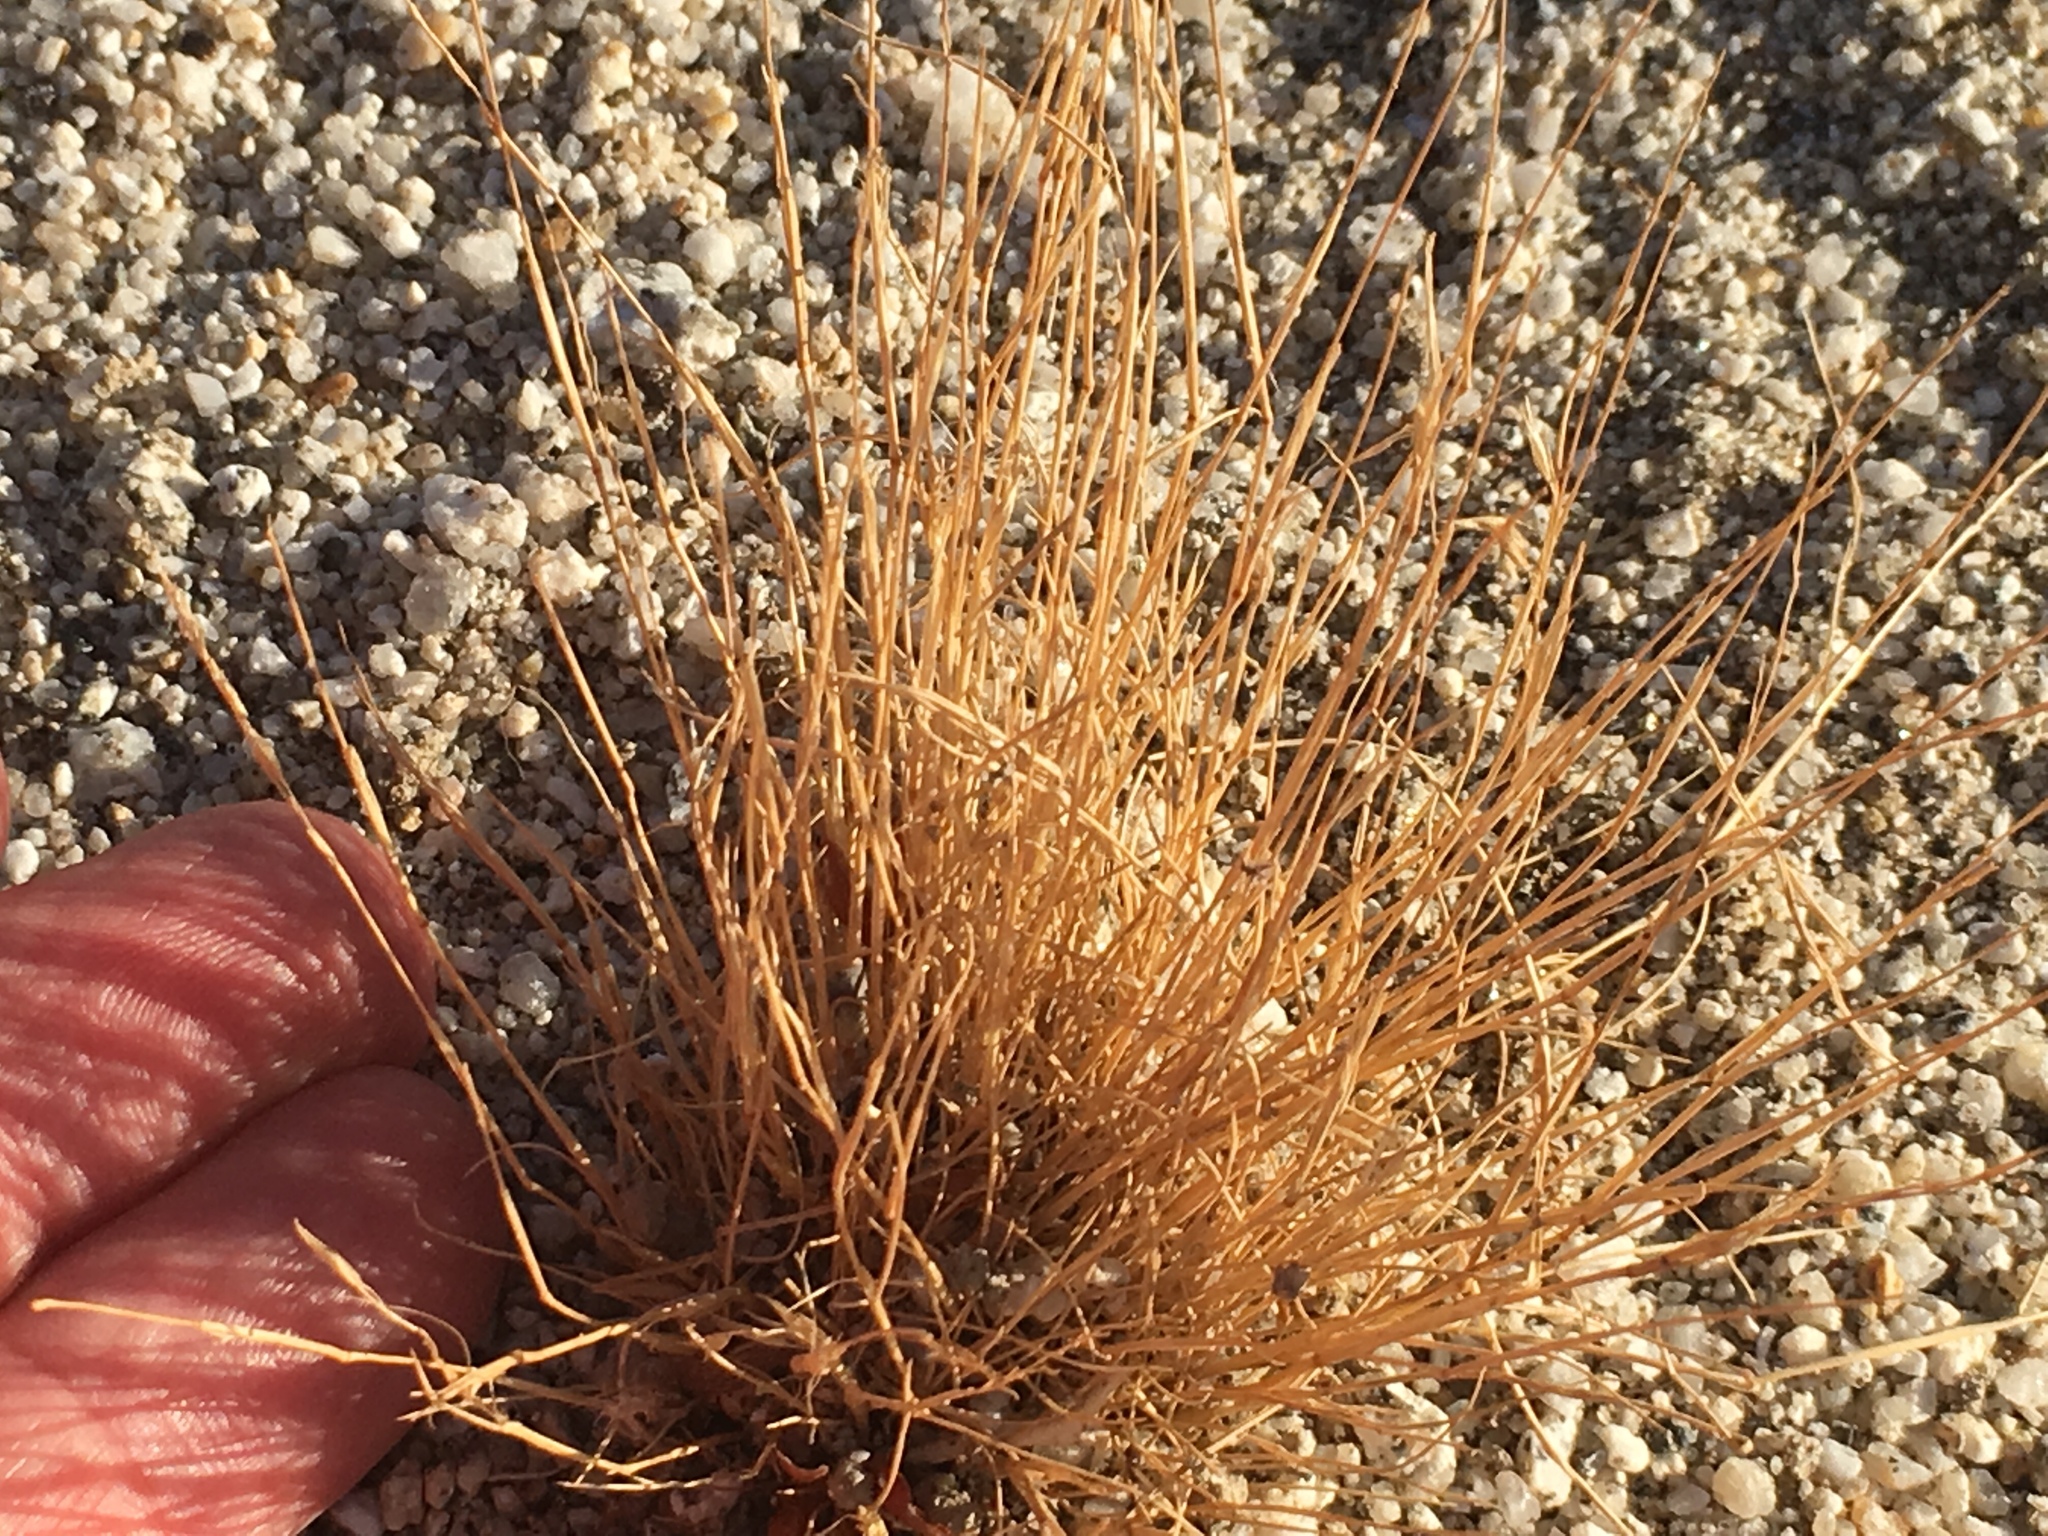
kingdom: Plantae
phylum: Tracheophyta
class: Liliopsida
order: Poales
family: Poaceae
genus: Schismus
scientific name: Schismus barbatus
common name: Kelch-grass
